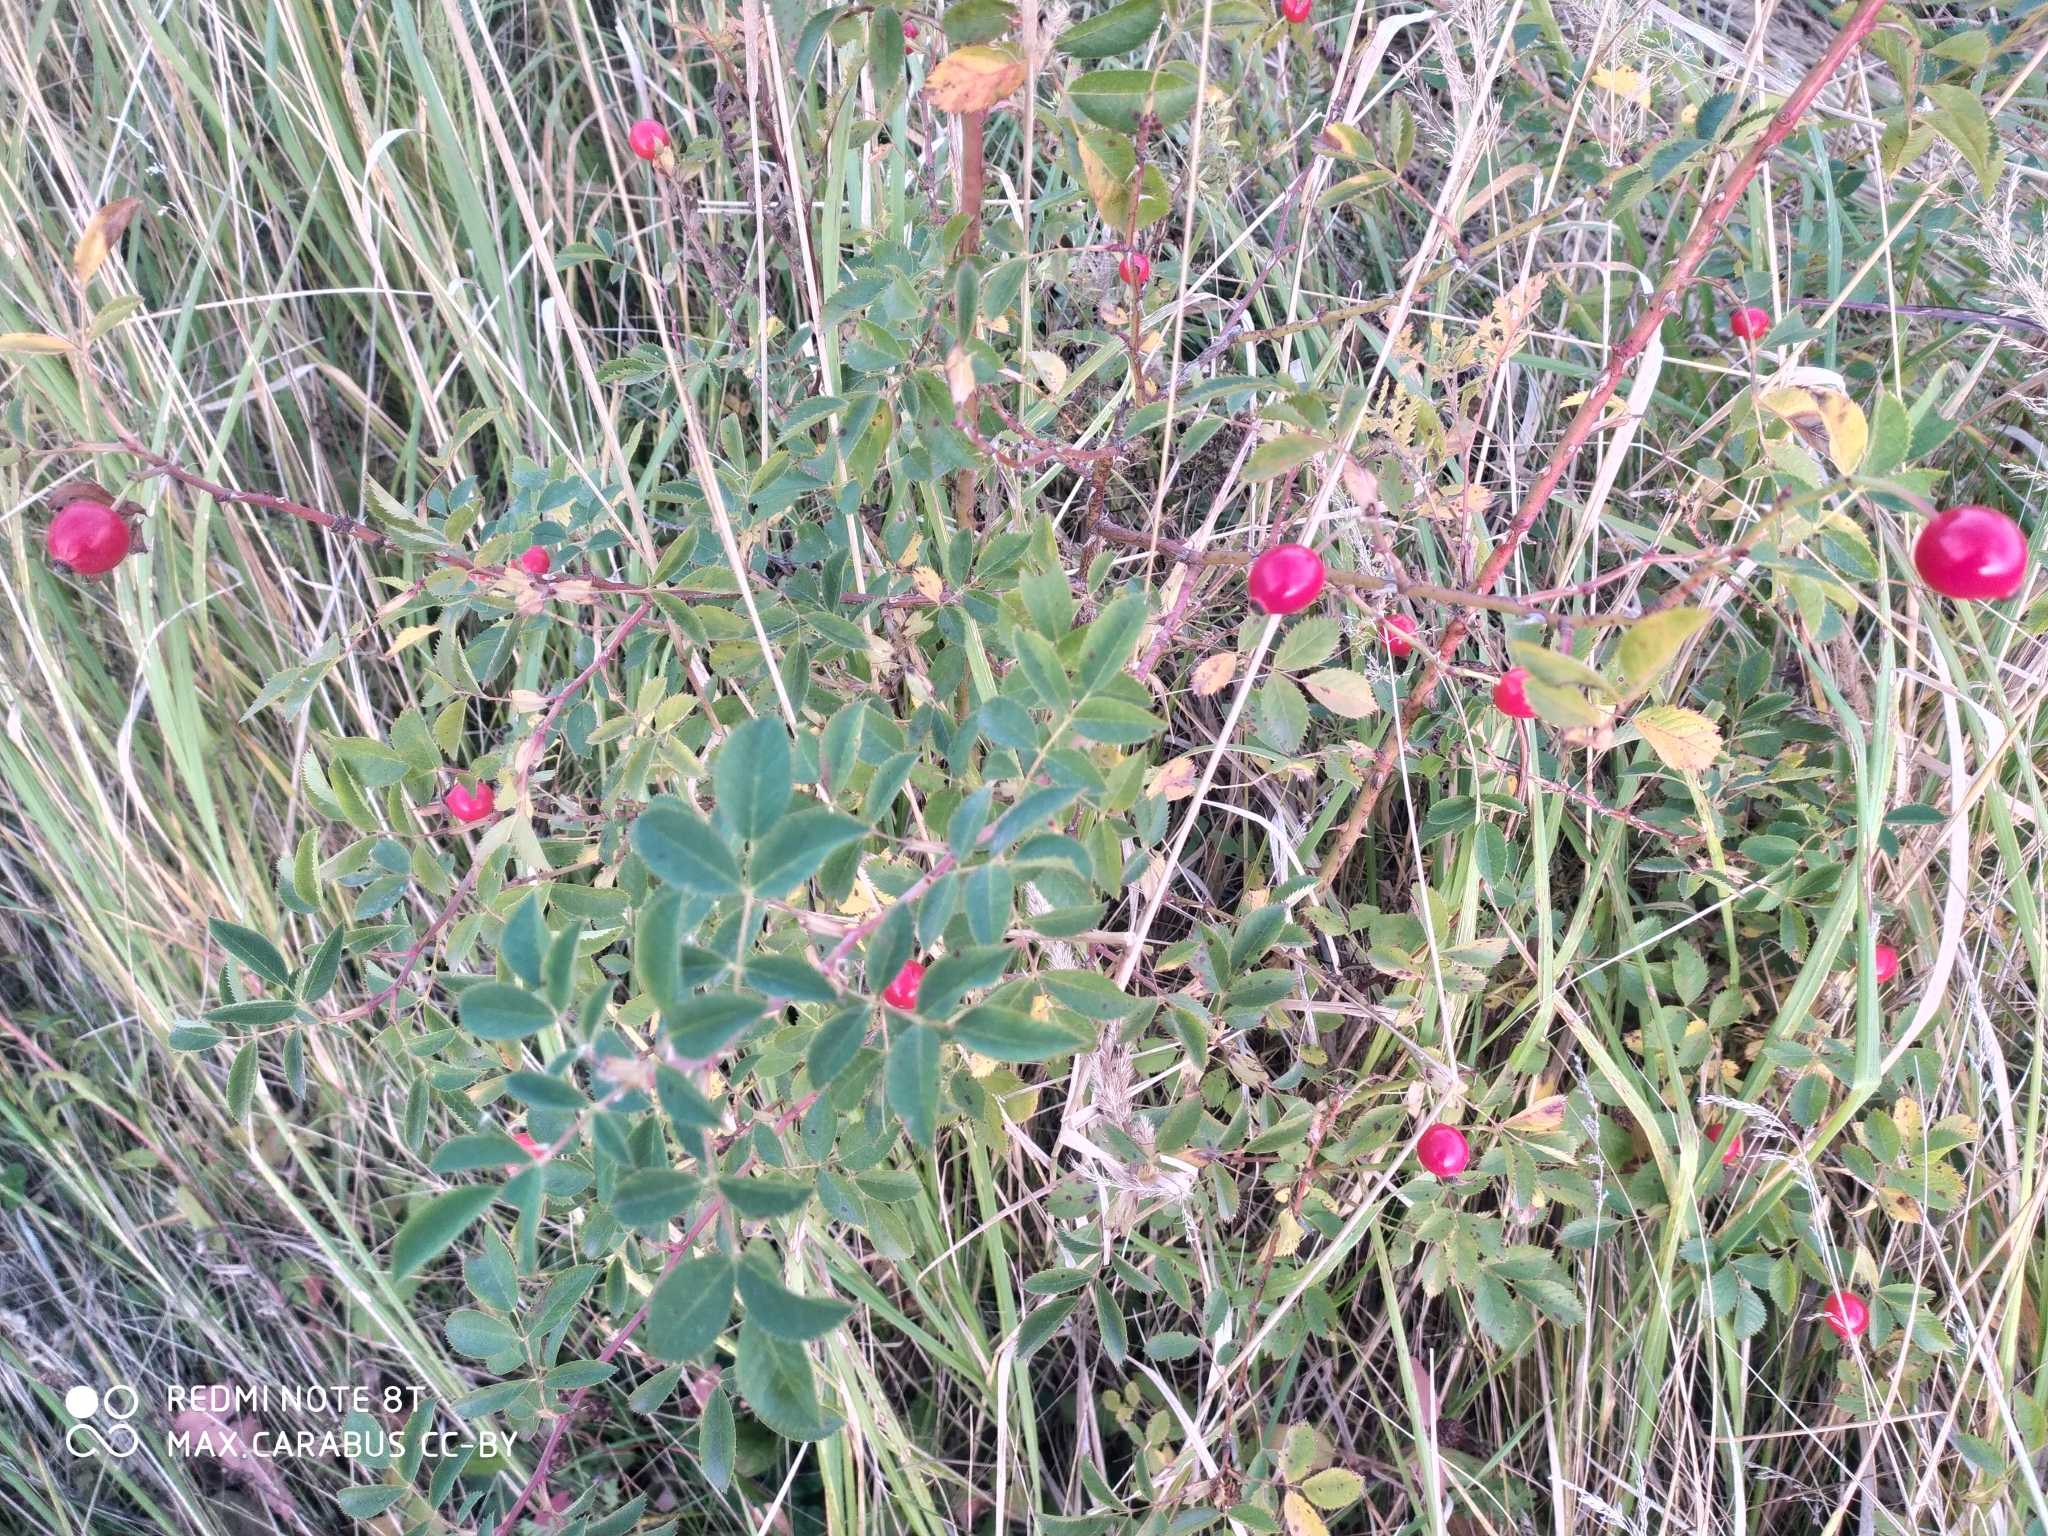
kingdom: Plantae
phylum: Tracheophyta
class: Magnoliopsida
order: Rosales
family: Rosaceae
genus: Rosa
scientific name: Rosa
